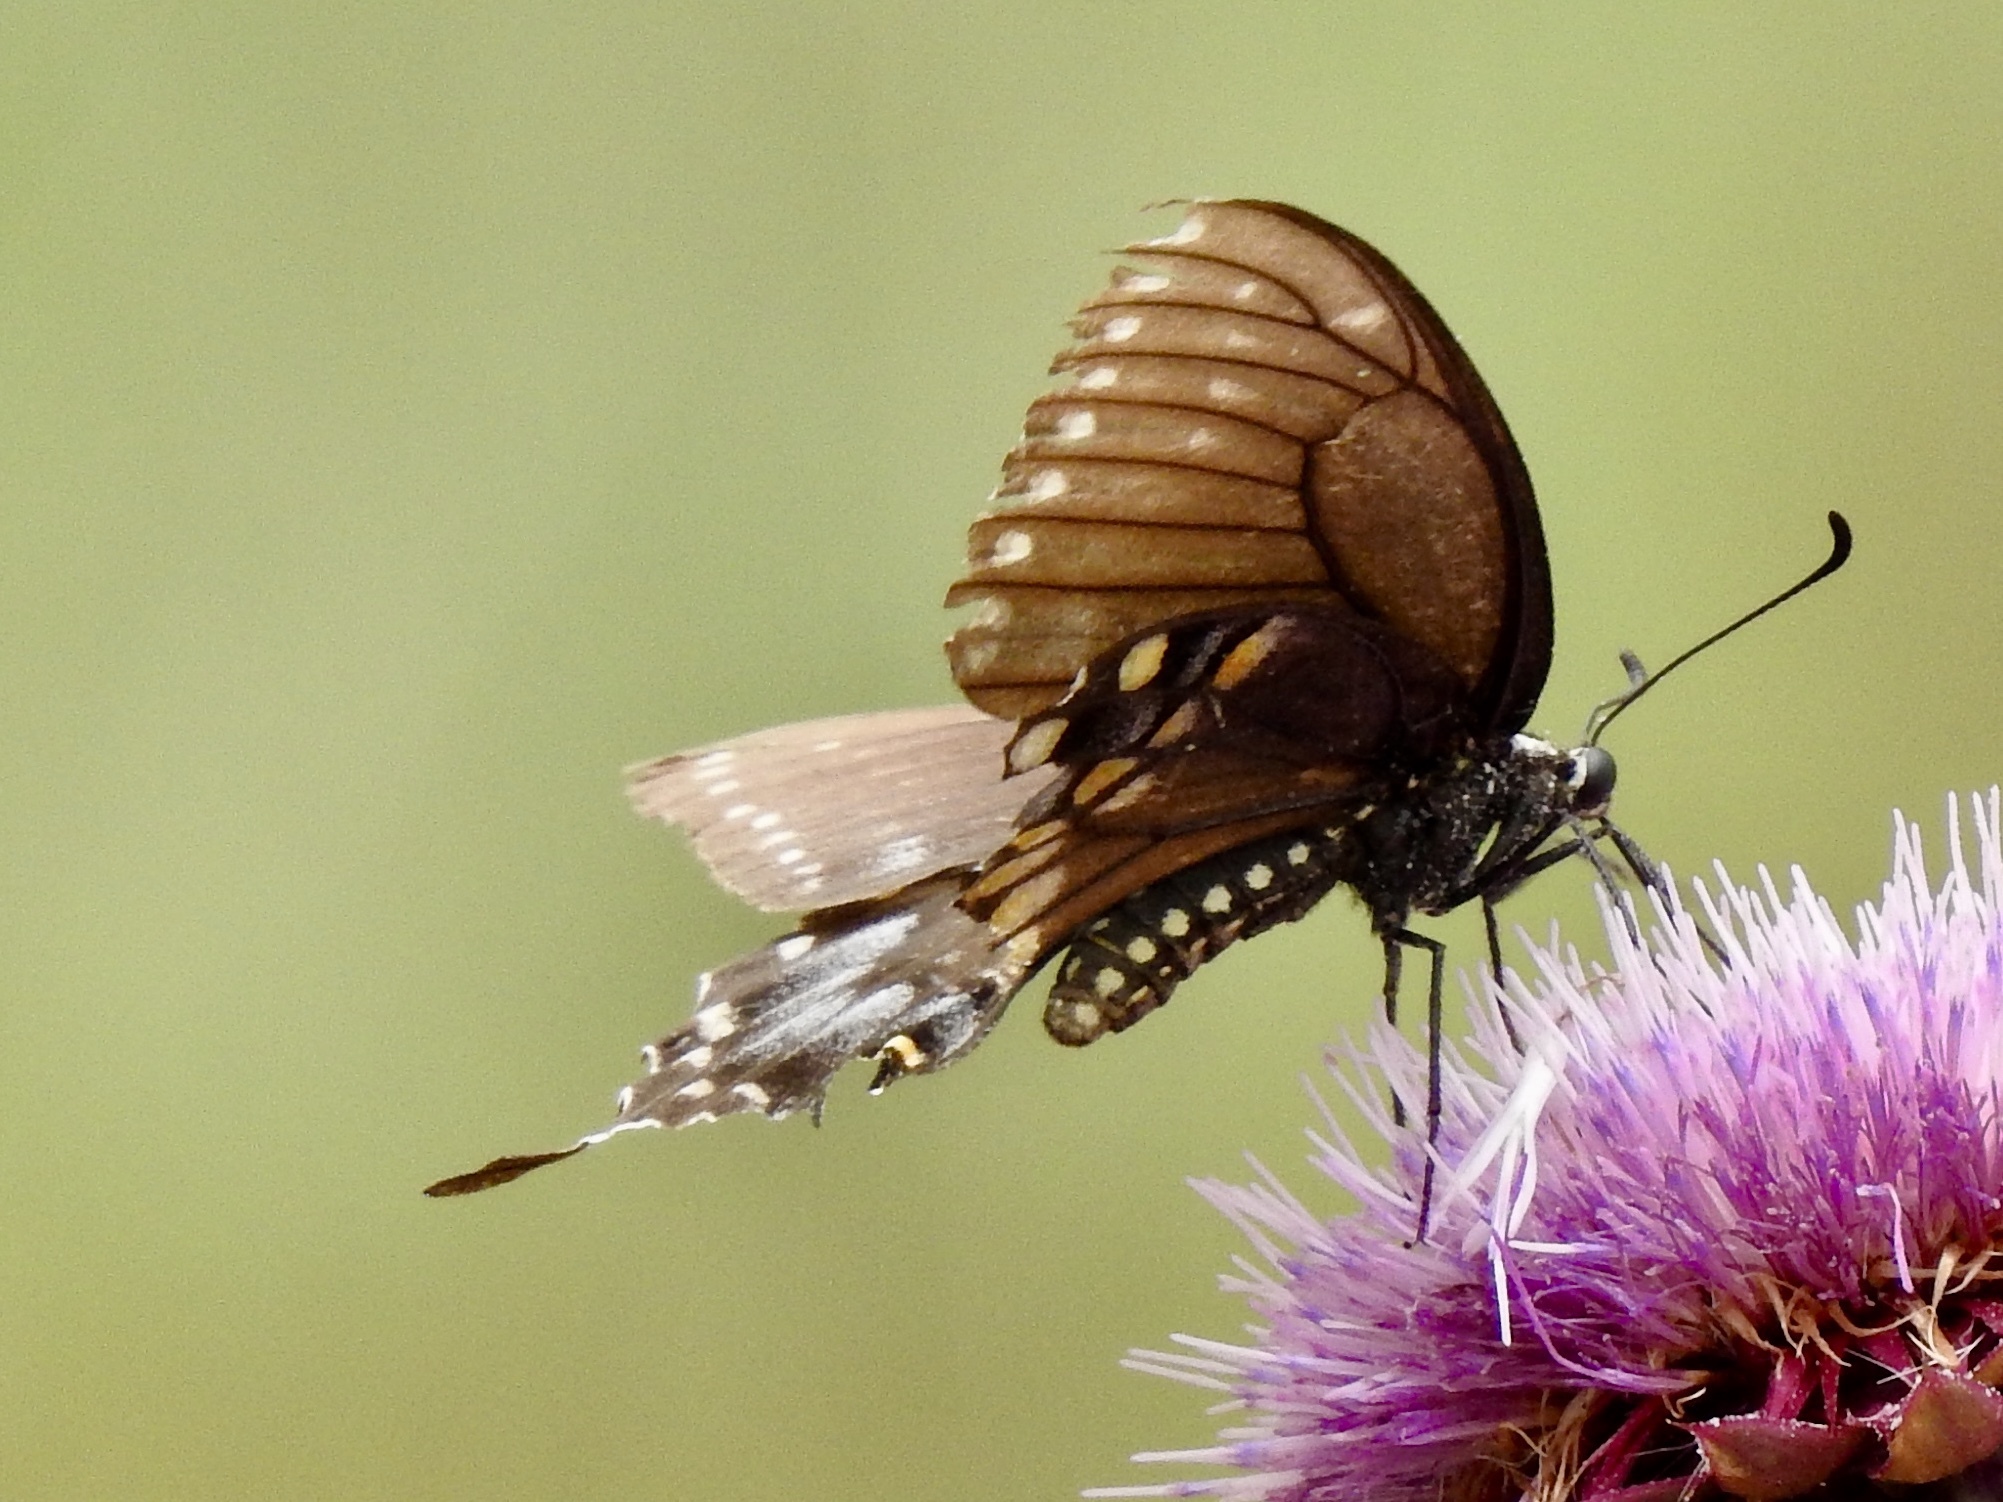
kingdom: Animalia
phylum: Arthropoda
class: Insecta
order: Lepidoptera
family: Papilionidae
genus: Papilio
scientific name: Papilio polyxenes
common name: Black swallowtail
